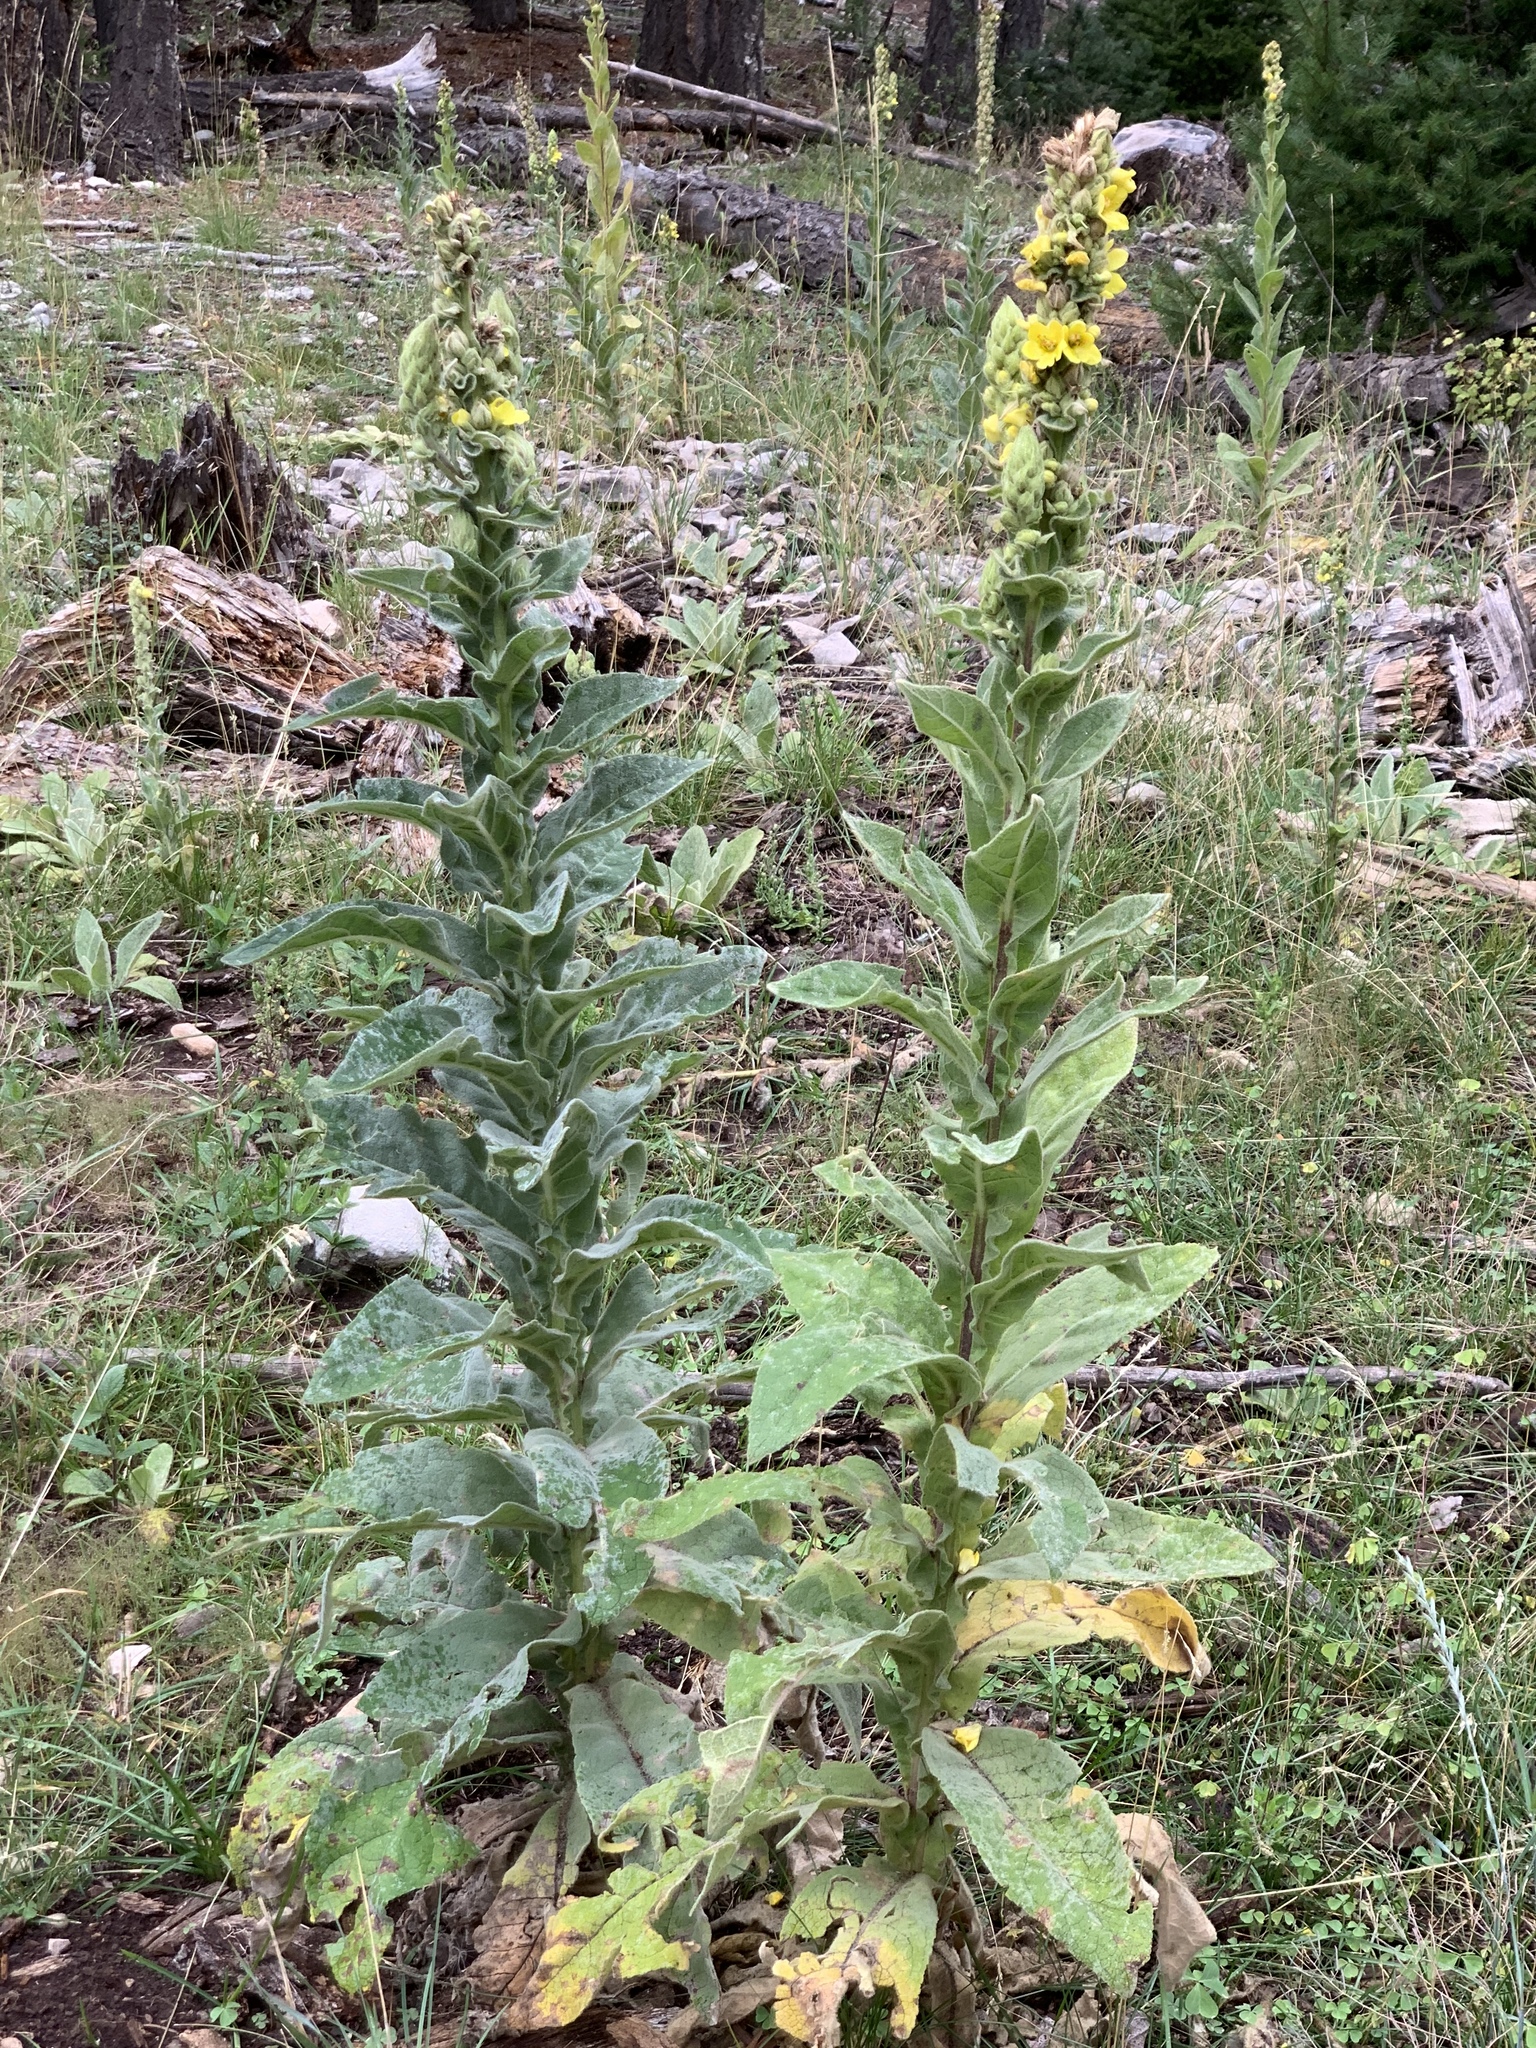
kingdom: Plantae
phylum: Tracheophyta
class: Magnoliopsida
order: Lamiales
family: Scrophulariaceae
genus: Verbascum
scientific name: Verbascum thapsus
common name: Common mullein
